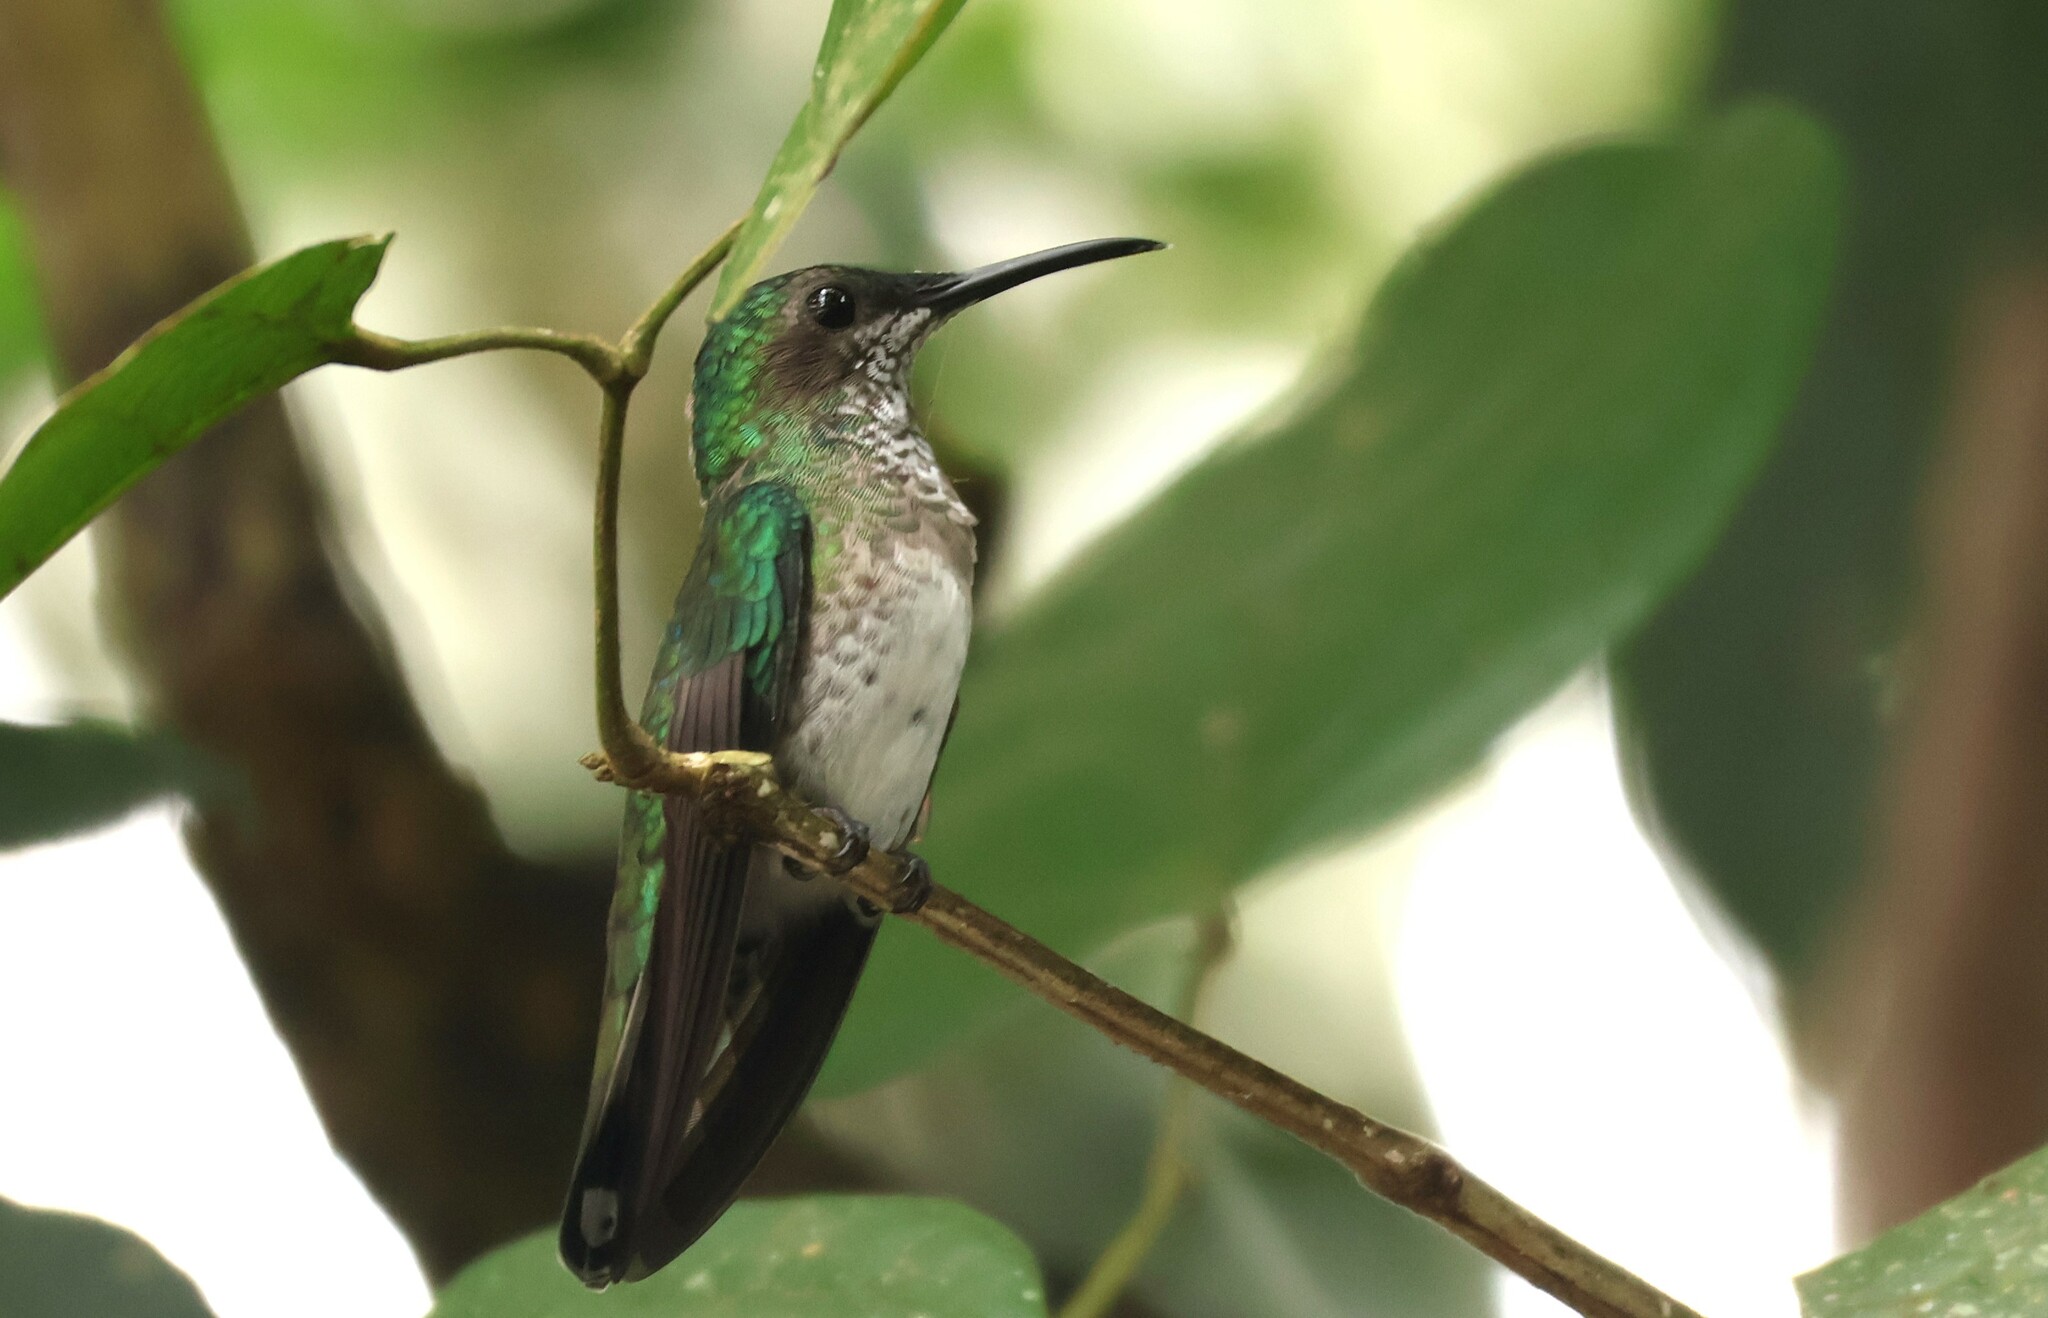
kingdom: Animalia
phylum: Chordata
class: Aves
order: Apodiformes
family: Trochilidae
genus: Florisuga
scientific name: Florisuga mellivora
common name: White-necked jacobin
